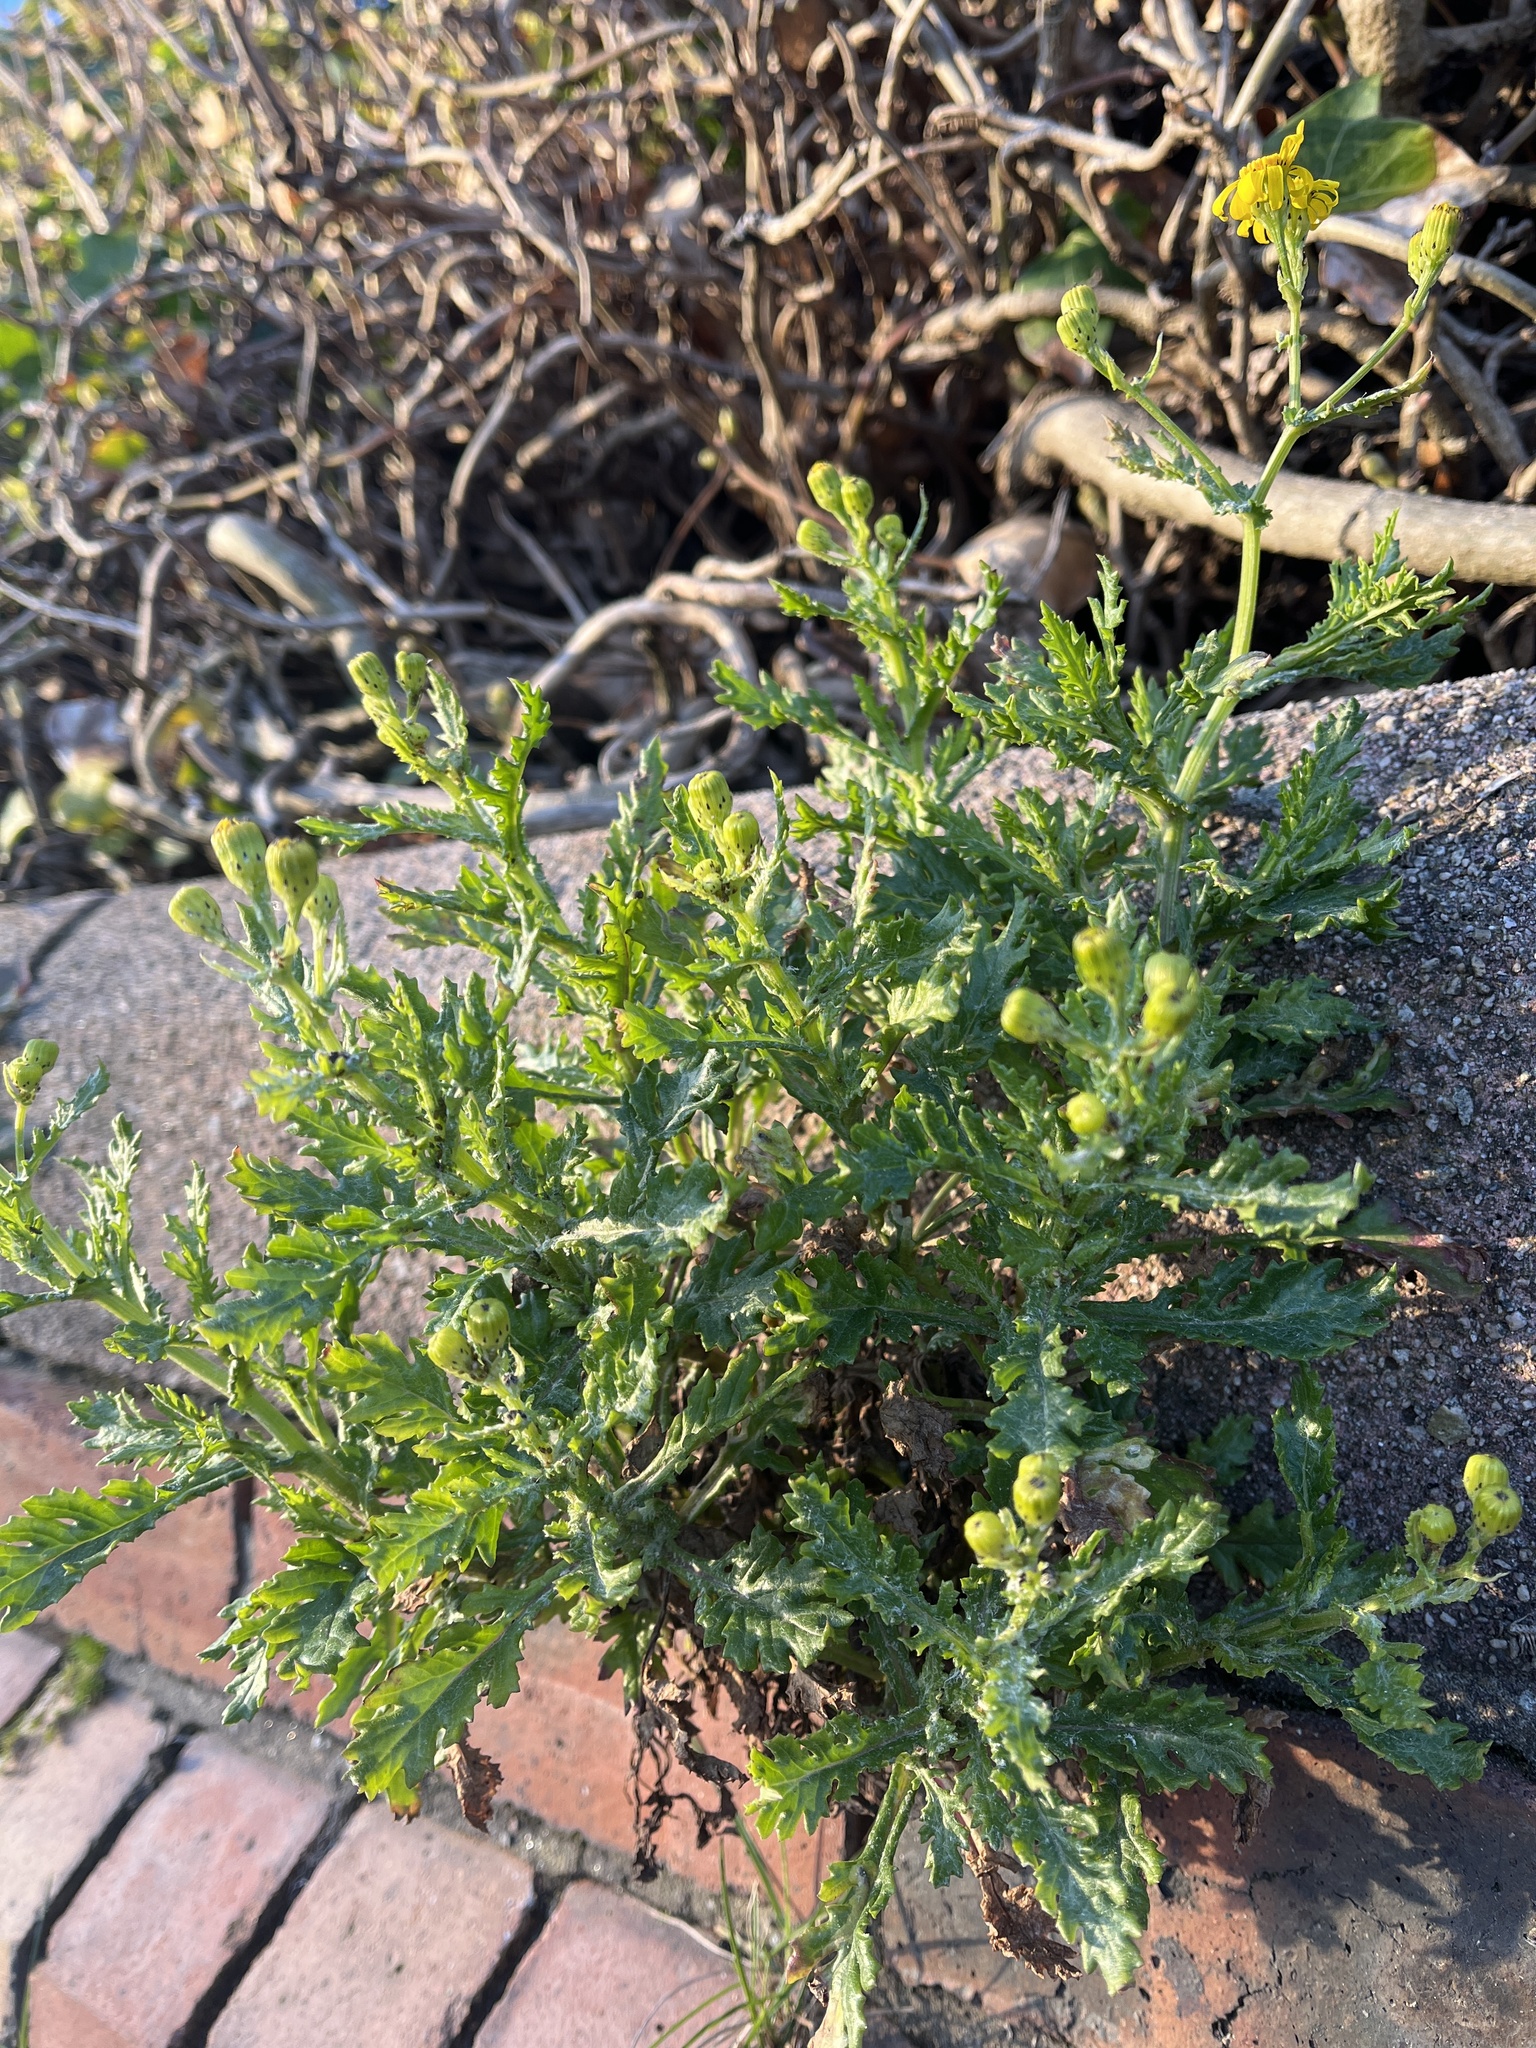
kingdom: Plantae
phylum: Tracheophyta
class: Magnoliopsida
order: Asterales
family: Asteraceae
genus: Senecio
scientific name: Senecio squalidus
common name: Oxford ragwort
